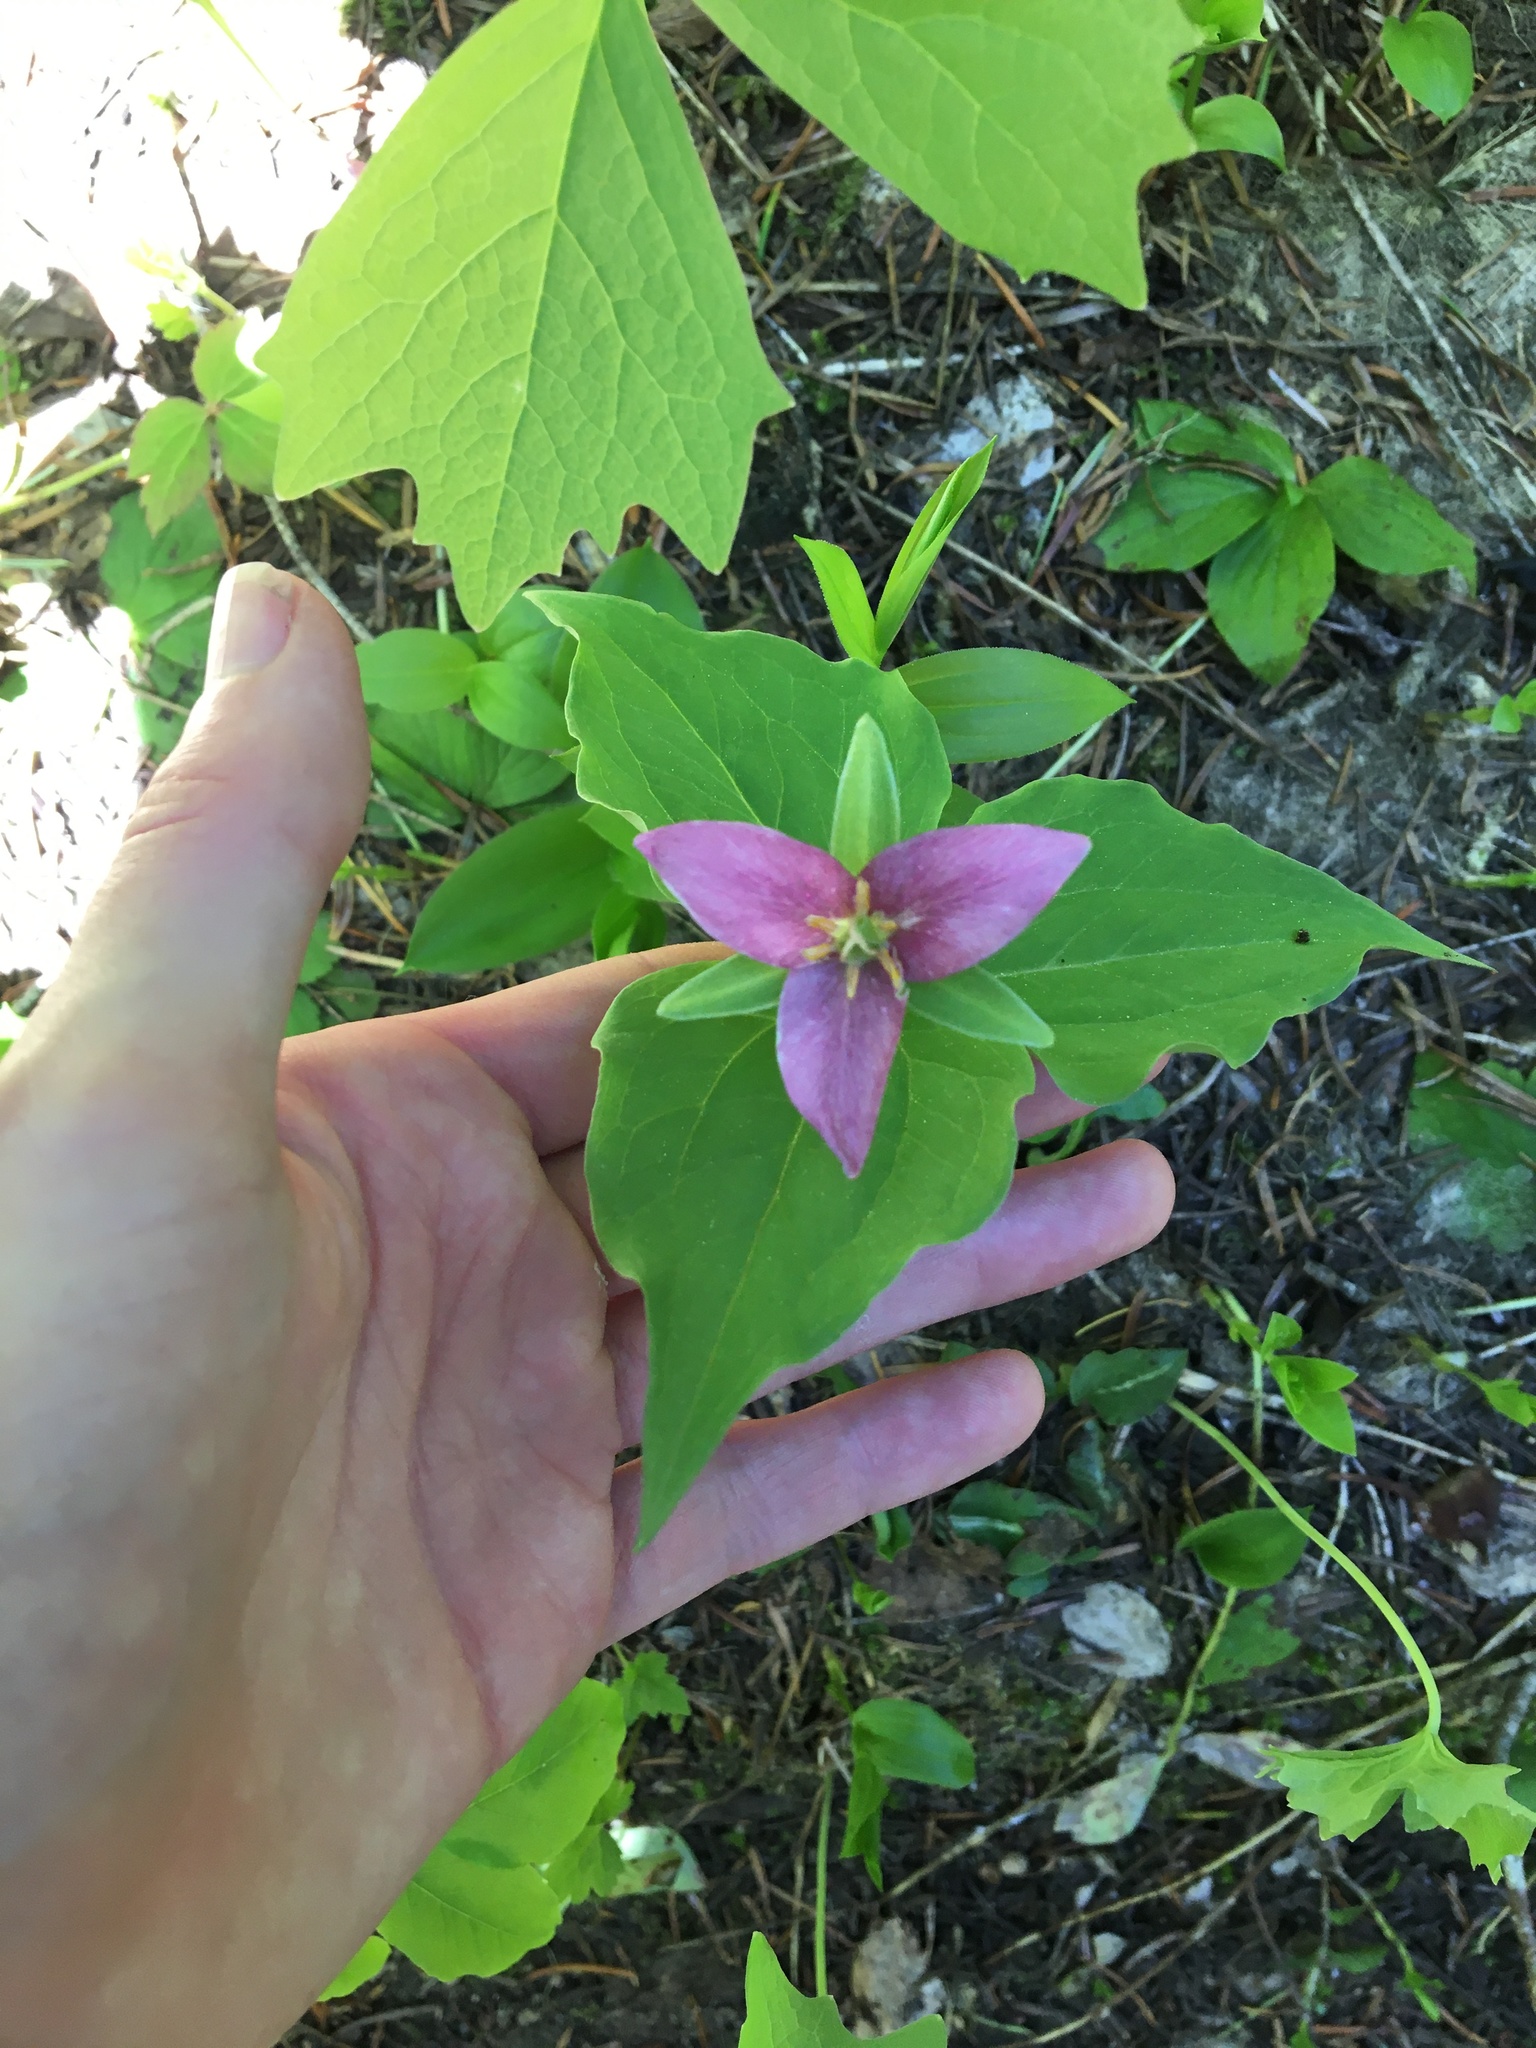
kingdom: Plantae
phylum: Tracheophyta
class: Liliopsida
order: Liliales
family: Melanthiaceae
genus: Trillium
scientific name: Trillium ovatum
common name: Pacific trillium
